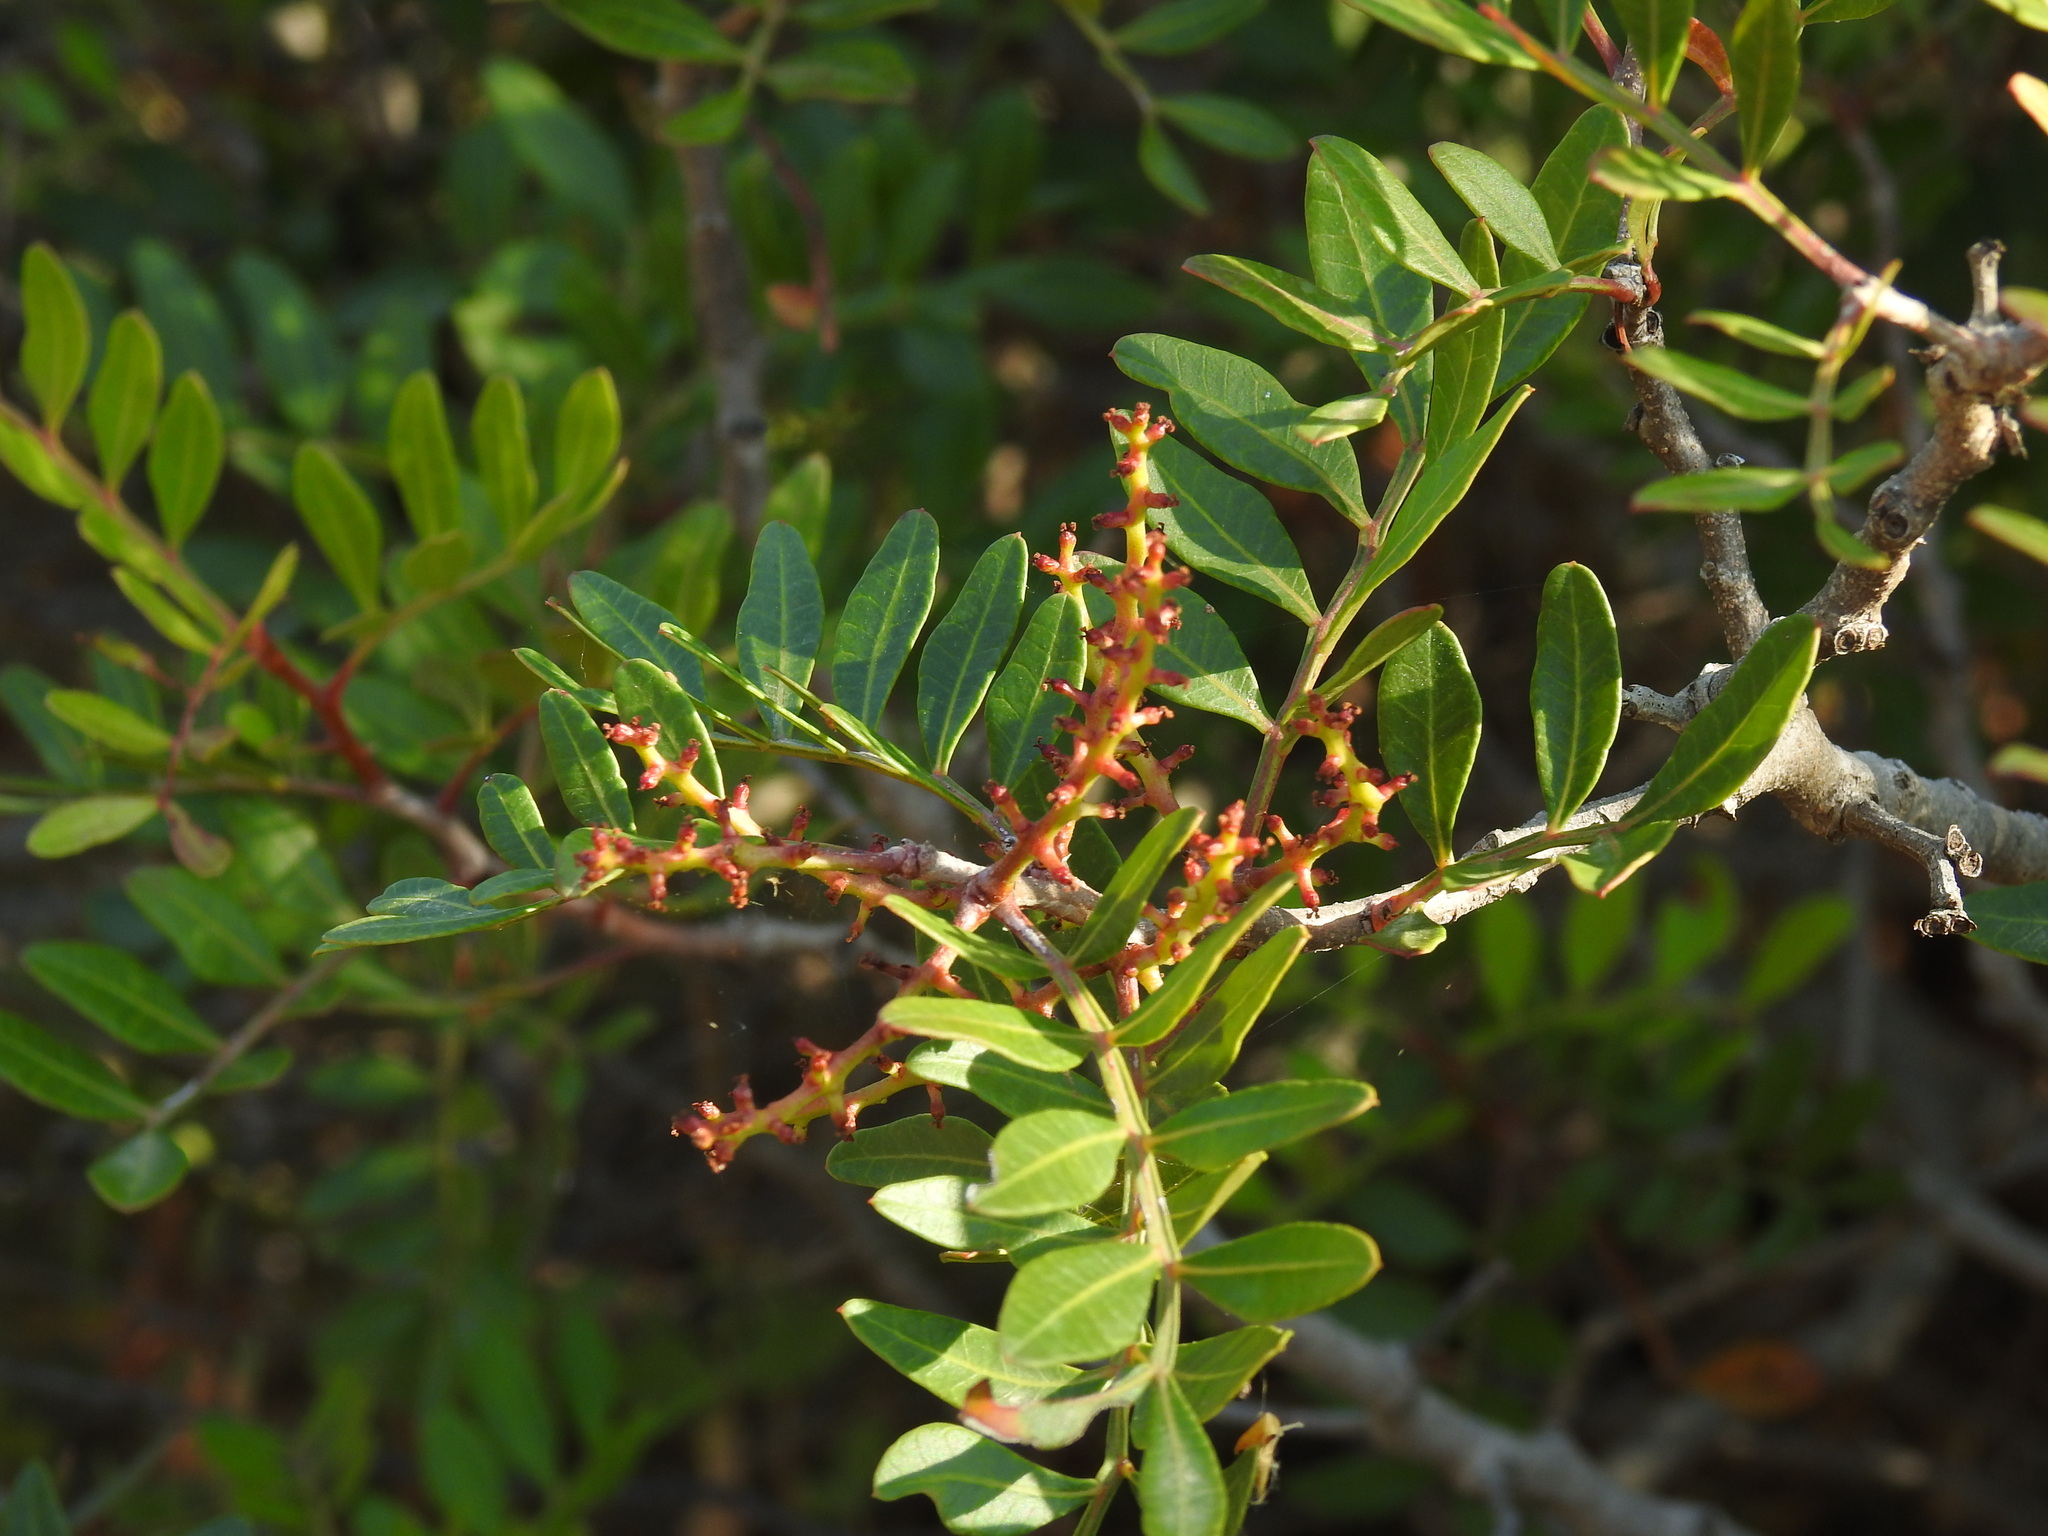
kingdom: Plantae
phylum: Tracheophyta
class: Magnoliopsida
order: Sapindales
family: Anacardiaceae
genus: Pistacia
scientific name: Pistacia lentiscus
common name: Lentisk
